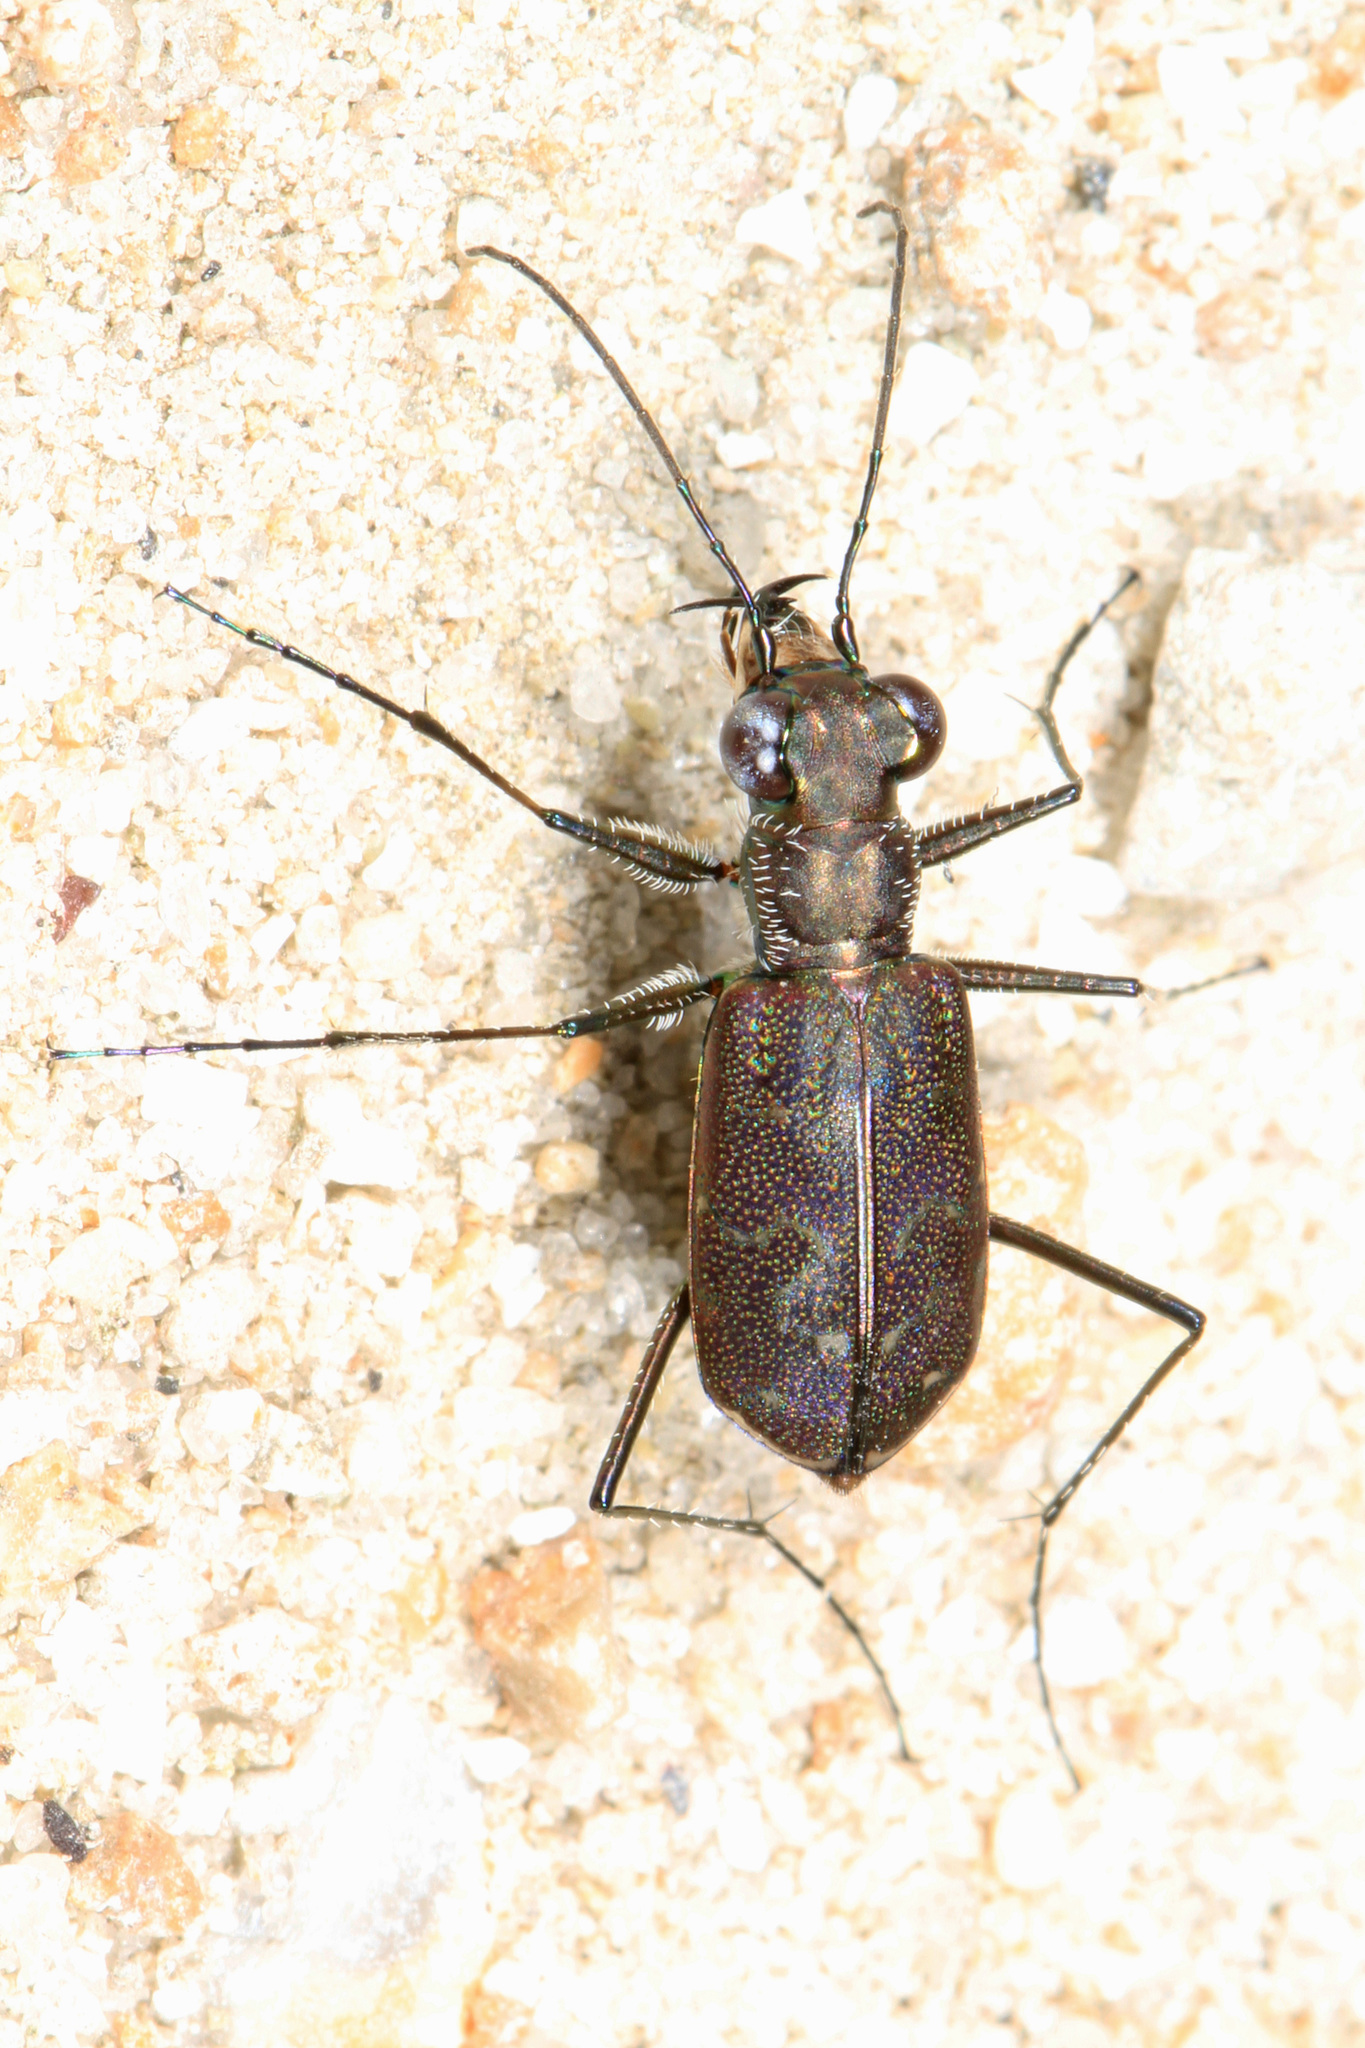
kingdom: Animalia
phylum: Arthropoda
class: Insecta
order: Coleoptera
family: Carabidae
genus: Cicindela
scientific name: Cicindela trifasciata
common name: Mudflat tiger beetle
